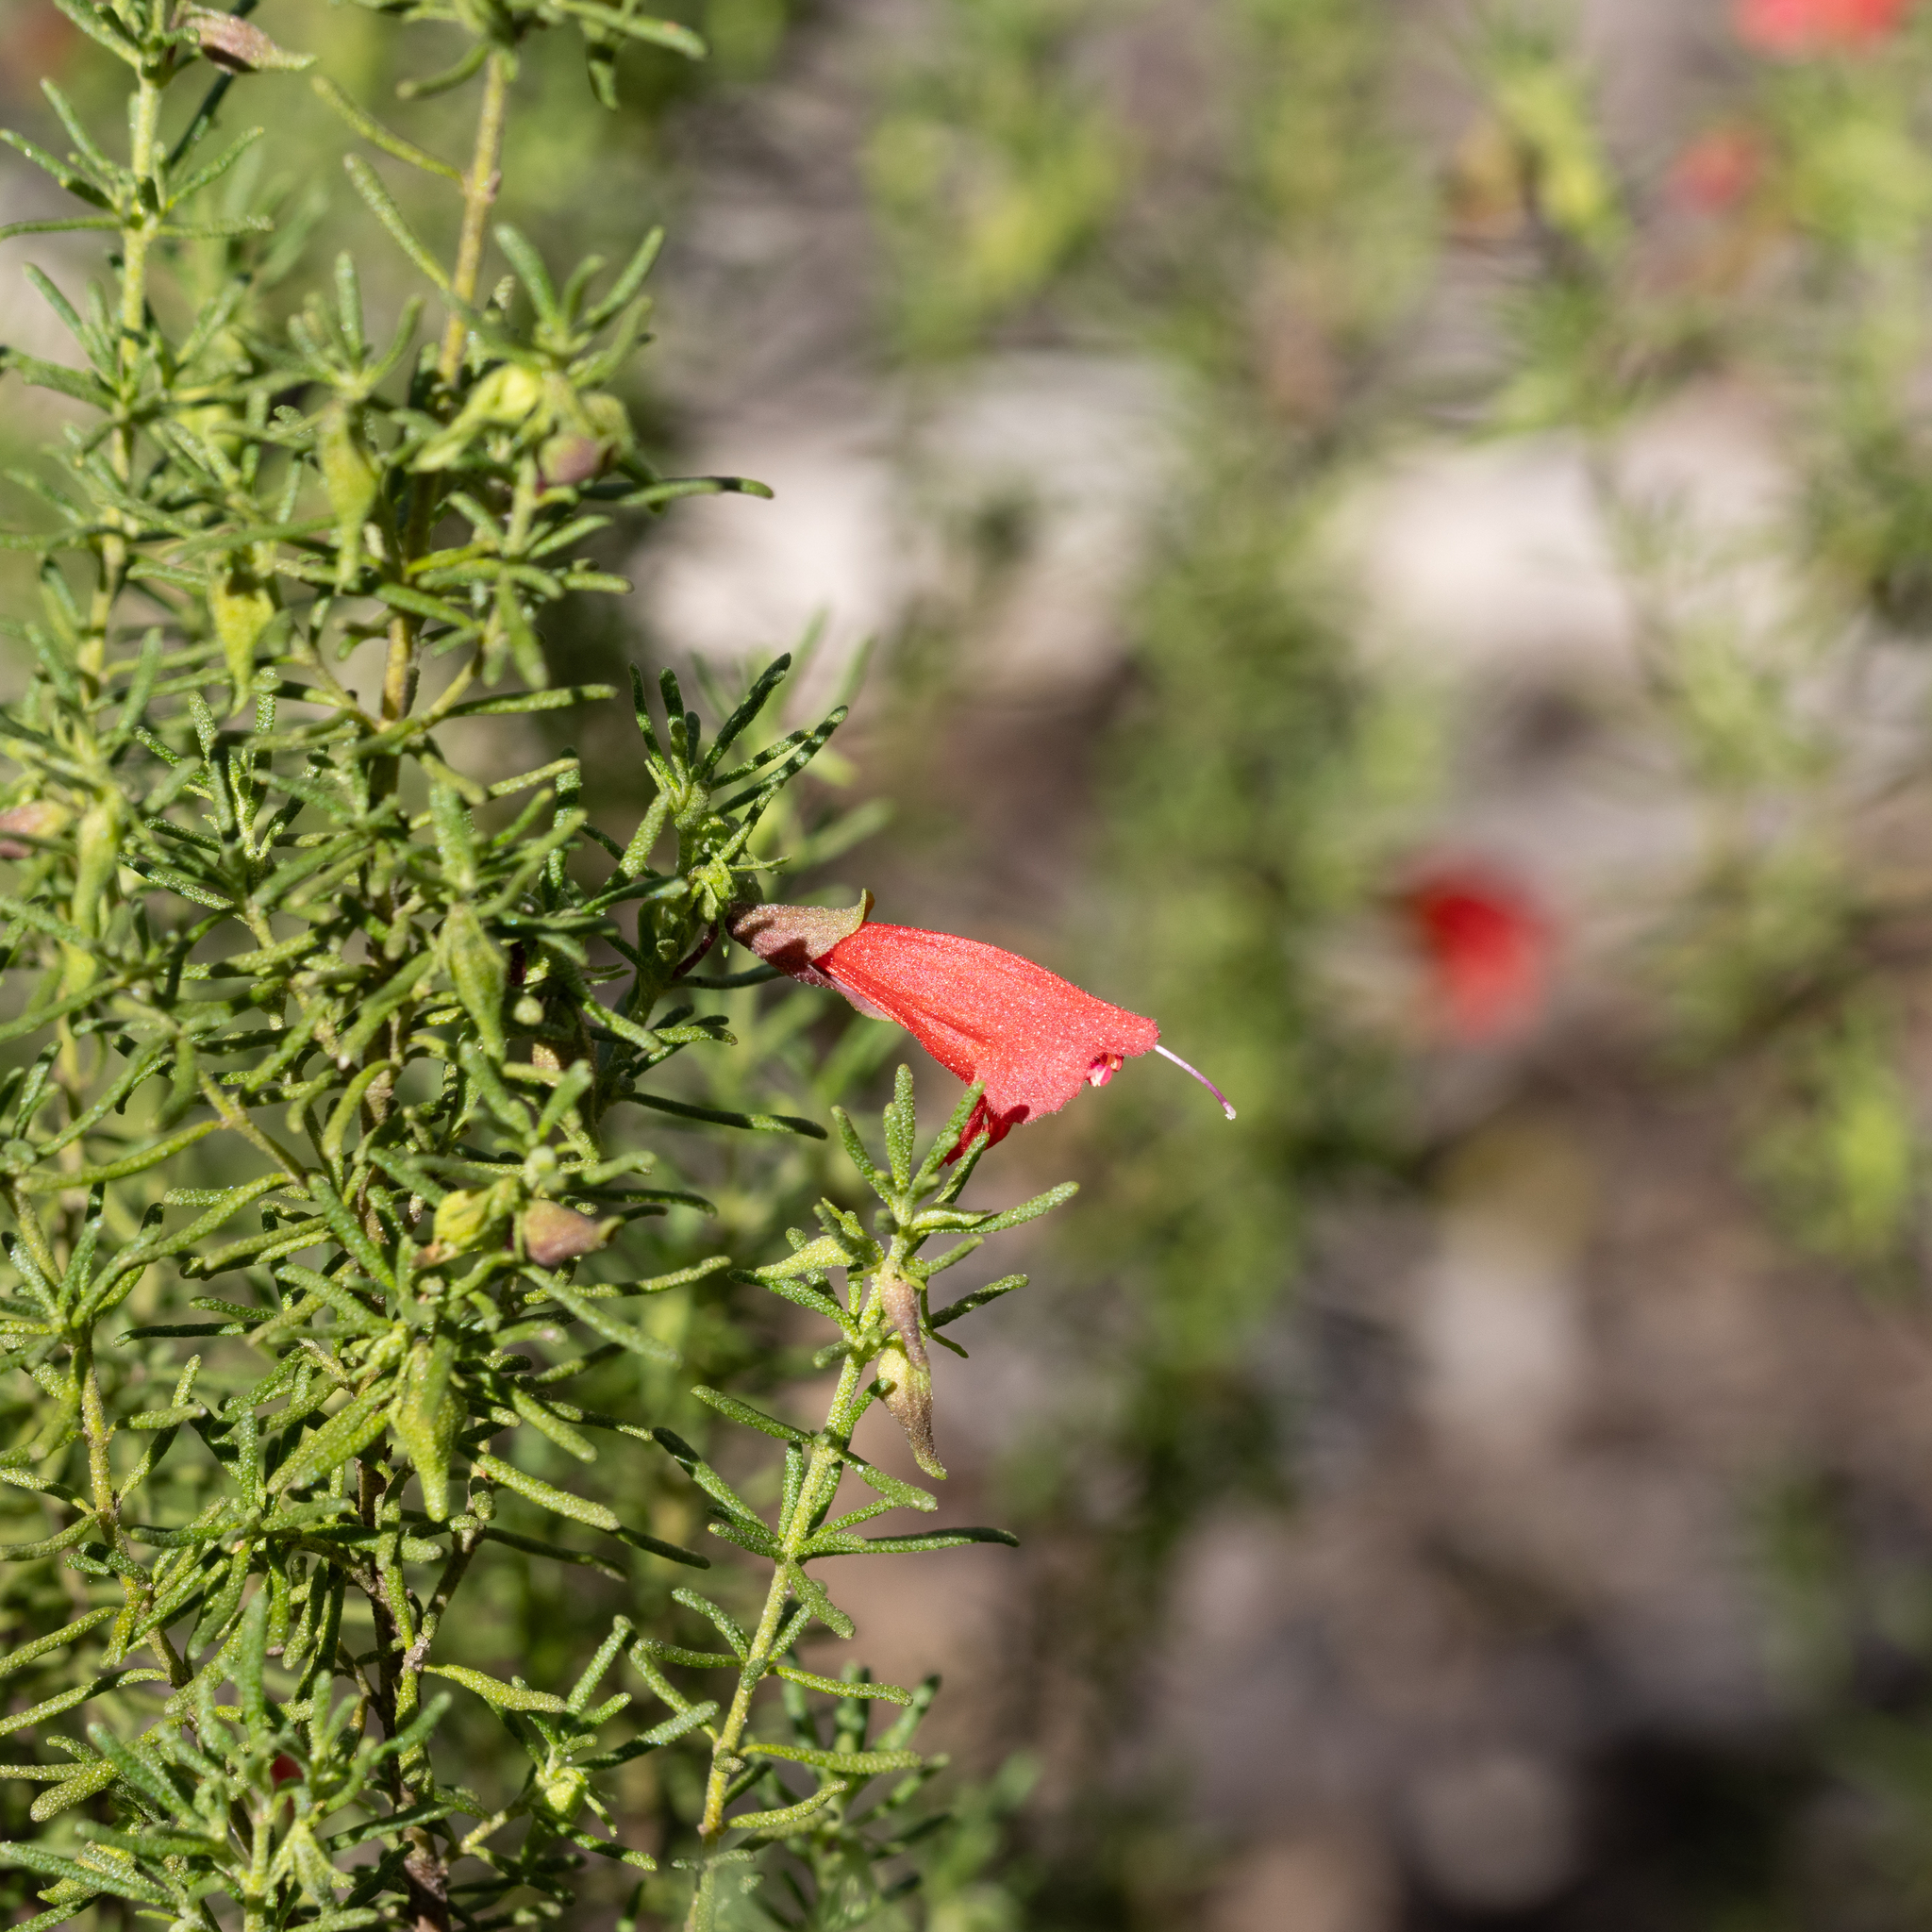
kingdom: Plantae
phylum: Tracheophyta
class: Magnoliopsida
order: Lamiales
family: Lamiaceae
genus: Prostanthera
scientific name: Prostanthera aspalathoides
